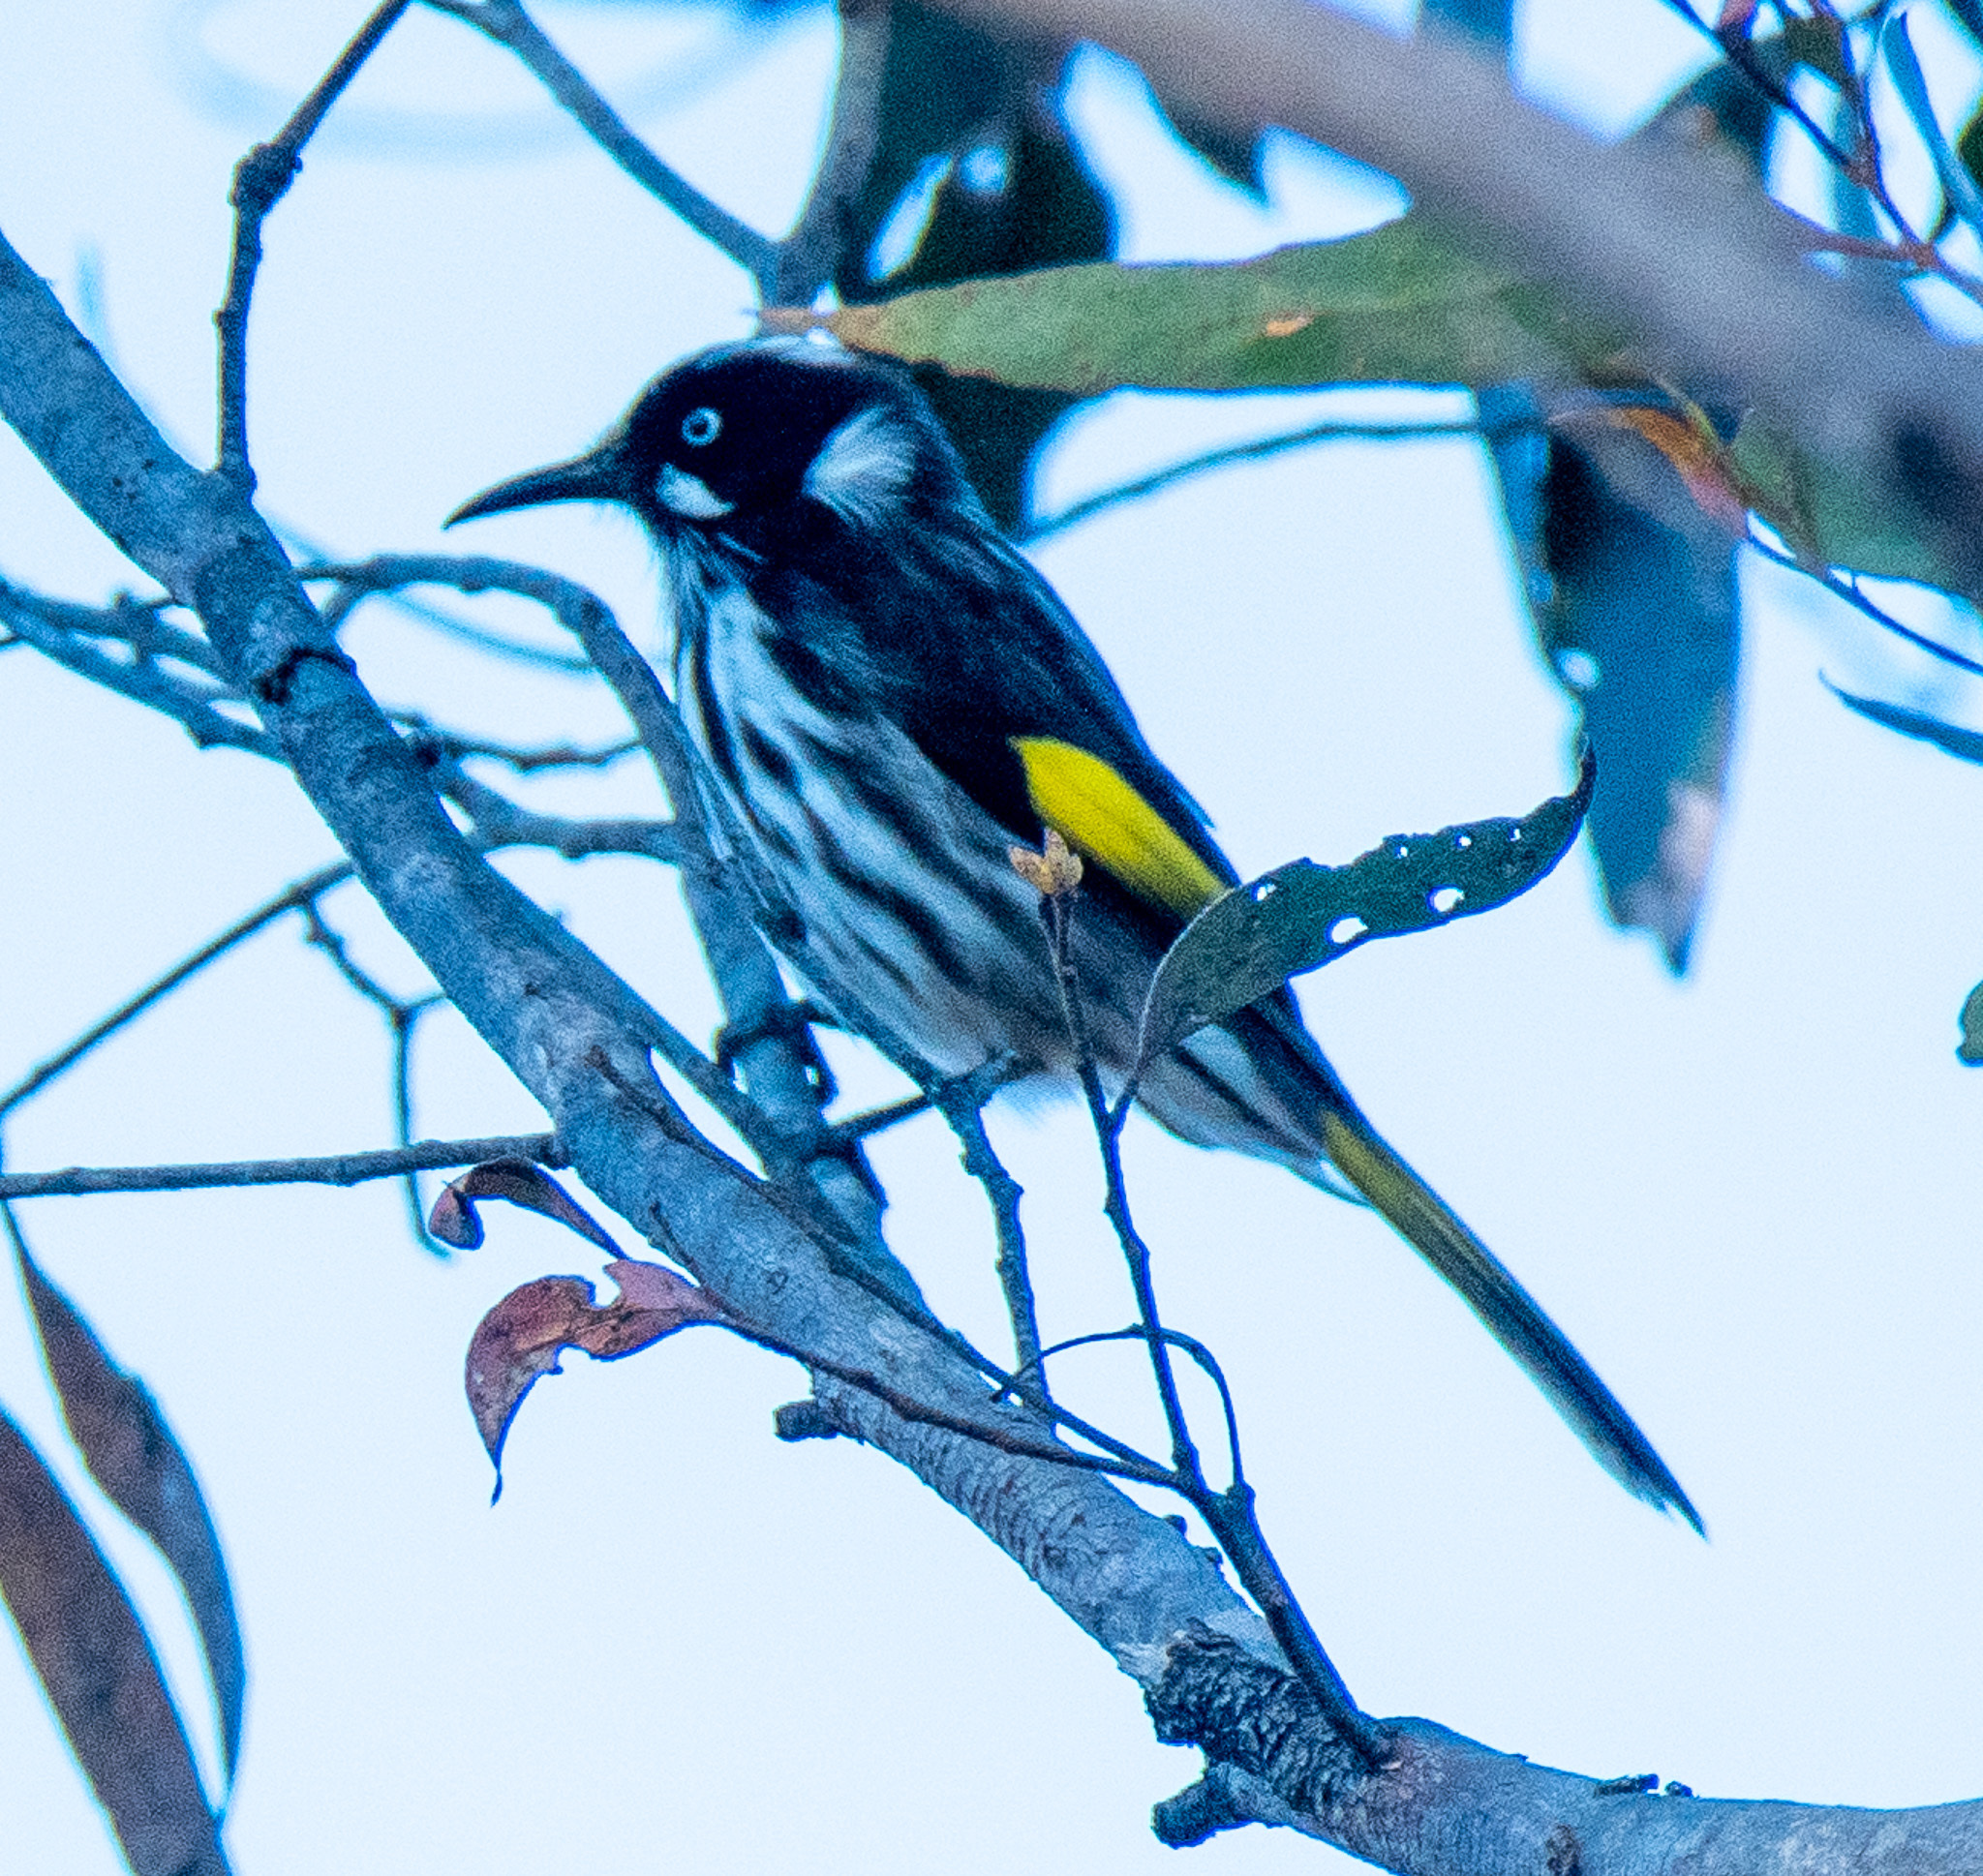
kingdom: Animalia
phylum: Chordata
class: Aves
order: Passeriformes
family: Meliphagidae
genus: Phylidonyris
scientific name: Phylidonyris novaehollandiae
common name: New holland honeyeater
